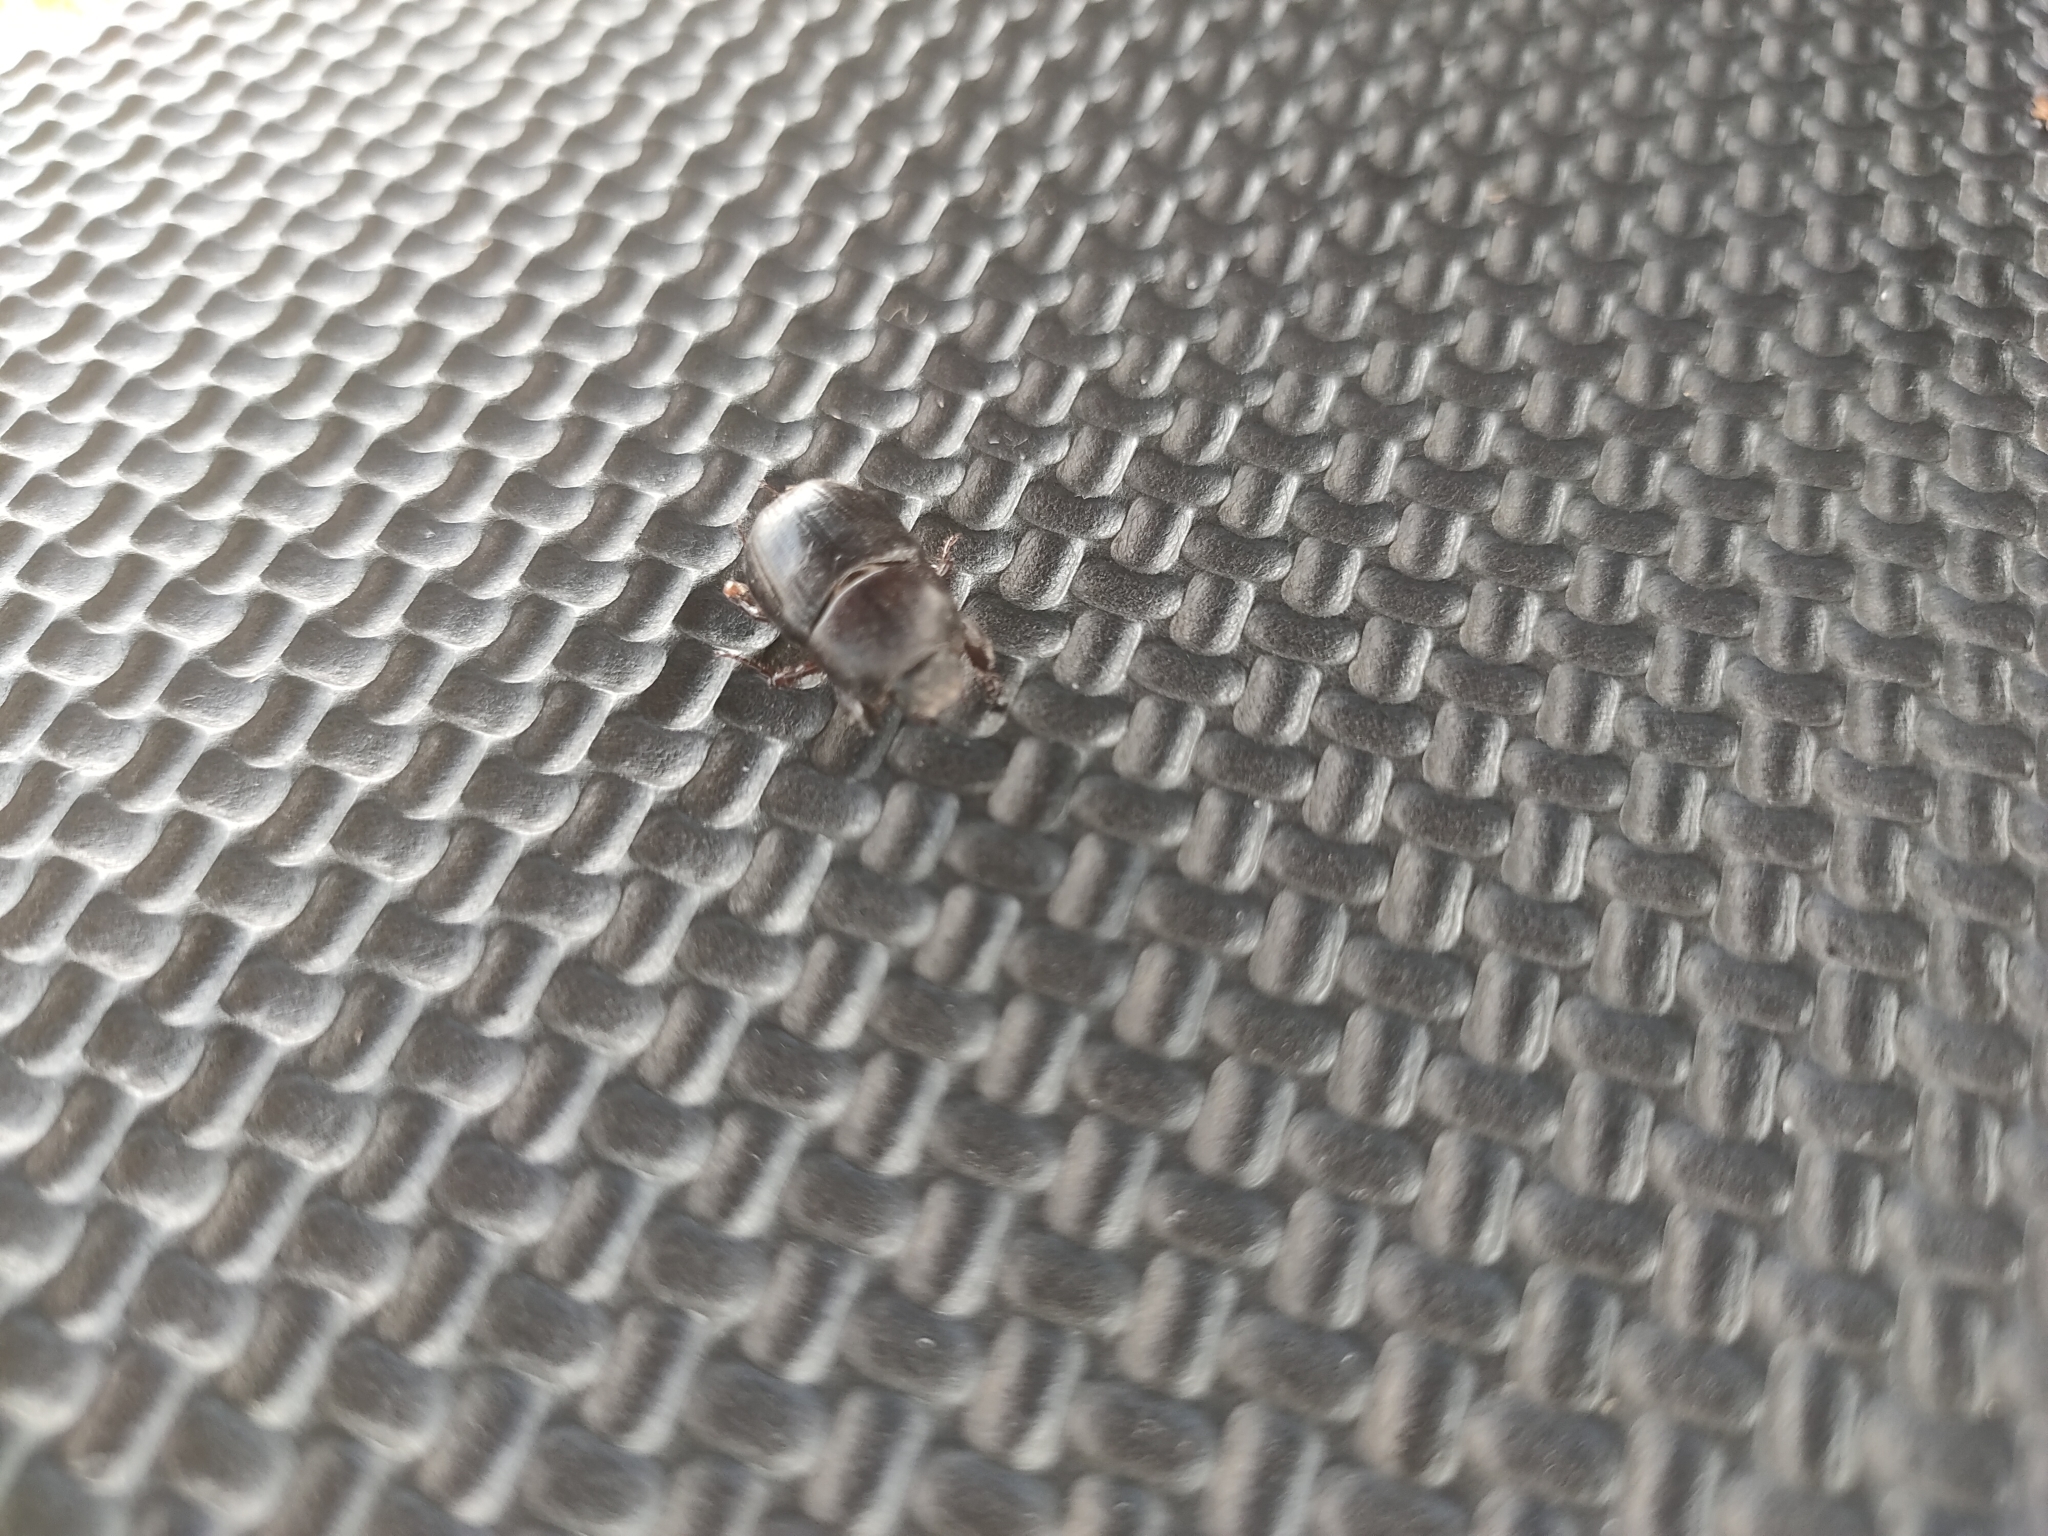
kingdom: Animalia
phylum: Arthropoda
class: Insecta
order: Coleoptera
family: Scarabaeidae
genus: Heteronychus
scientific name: Heteronychus arator
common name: African black beetle
